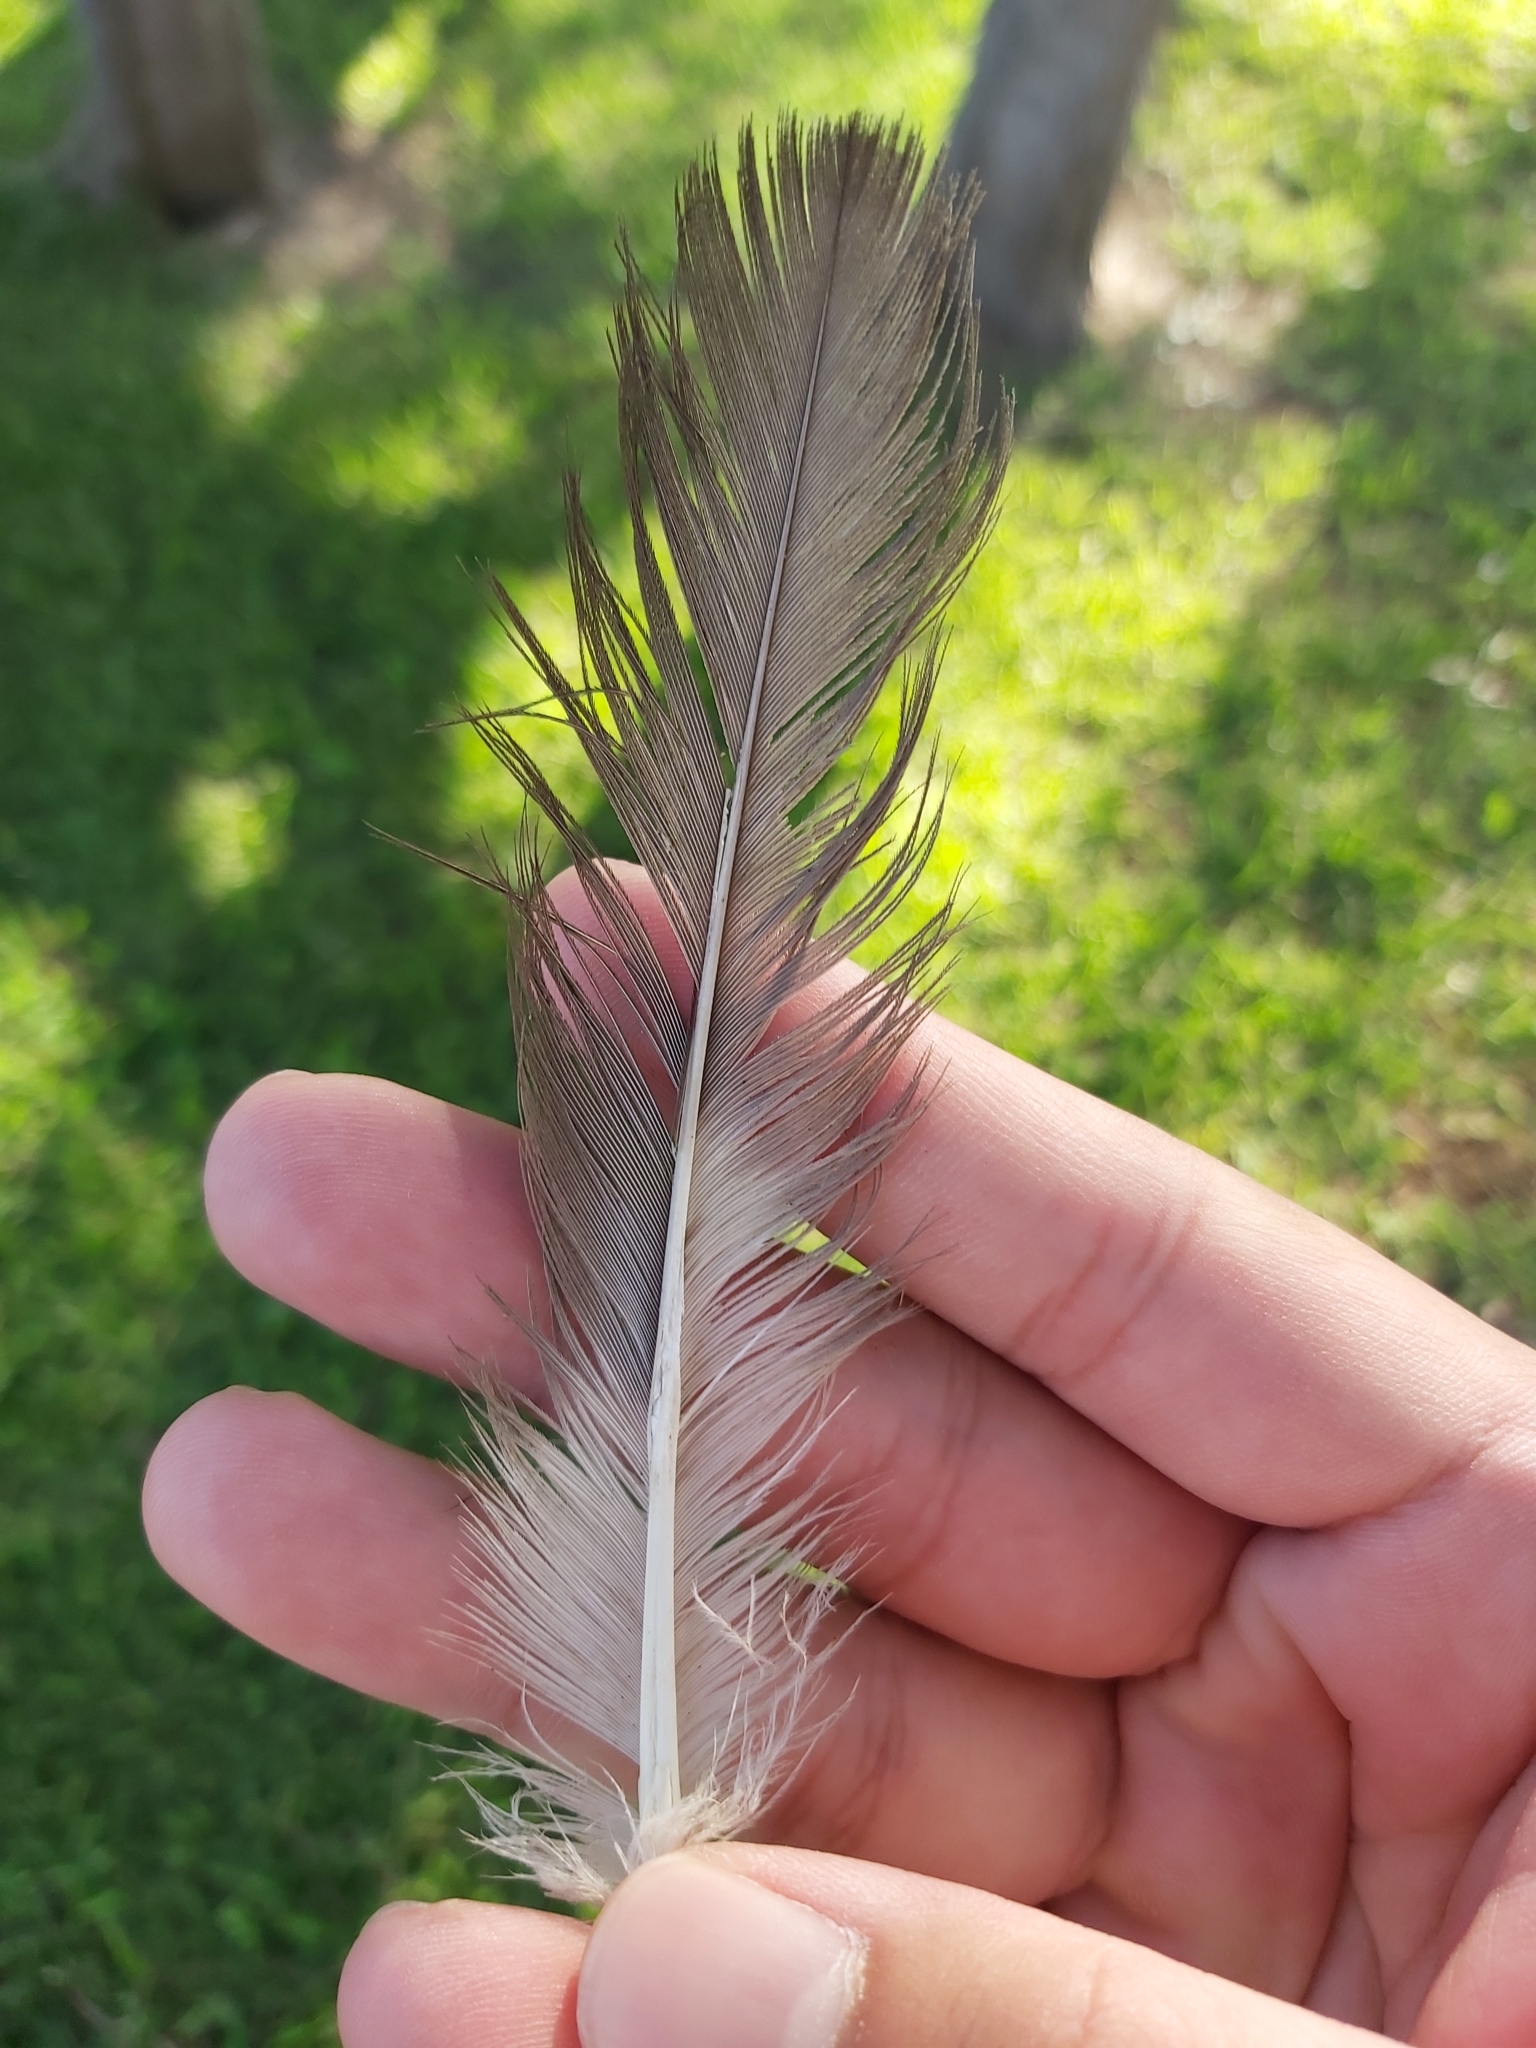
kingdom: Animalia
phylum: Chordata
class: Aves
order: Charadriiformes
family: Stercorariidae
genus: Stercorarius
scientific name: Stercorarius pomarinus
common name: Pomarine jaeger
